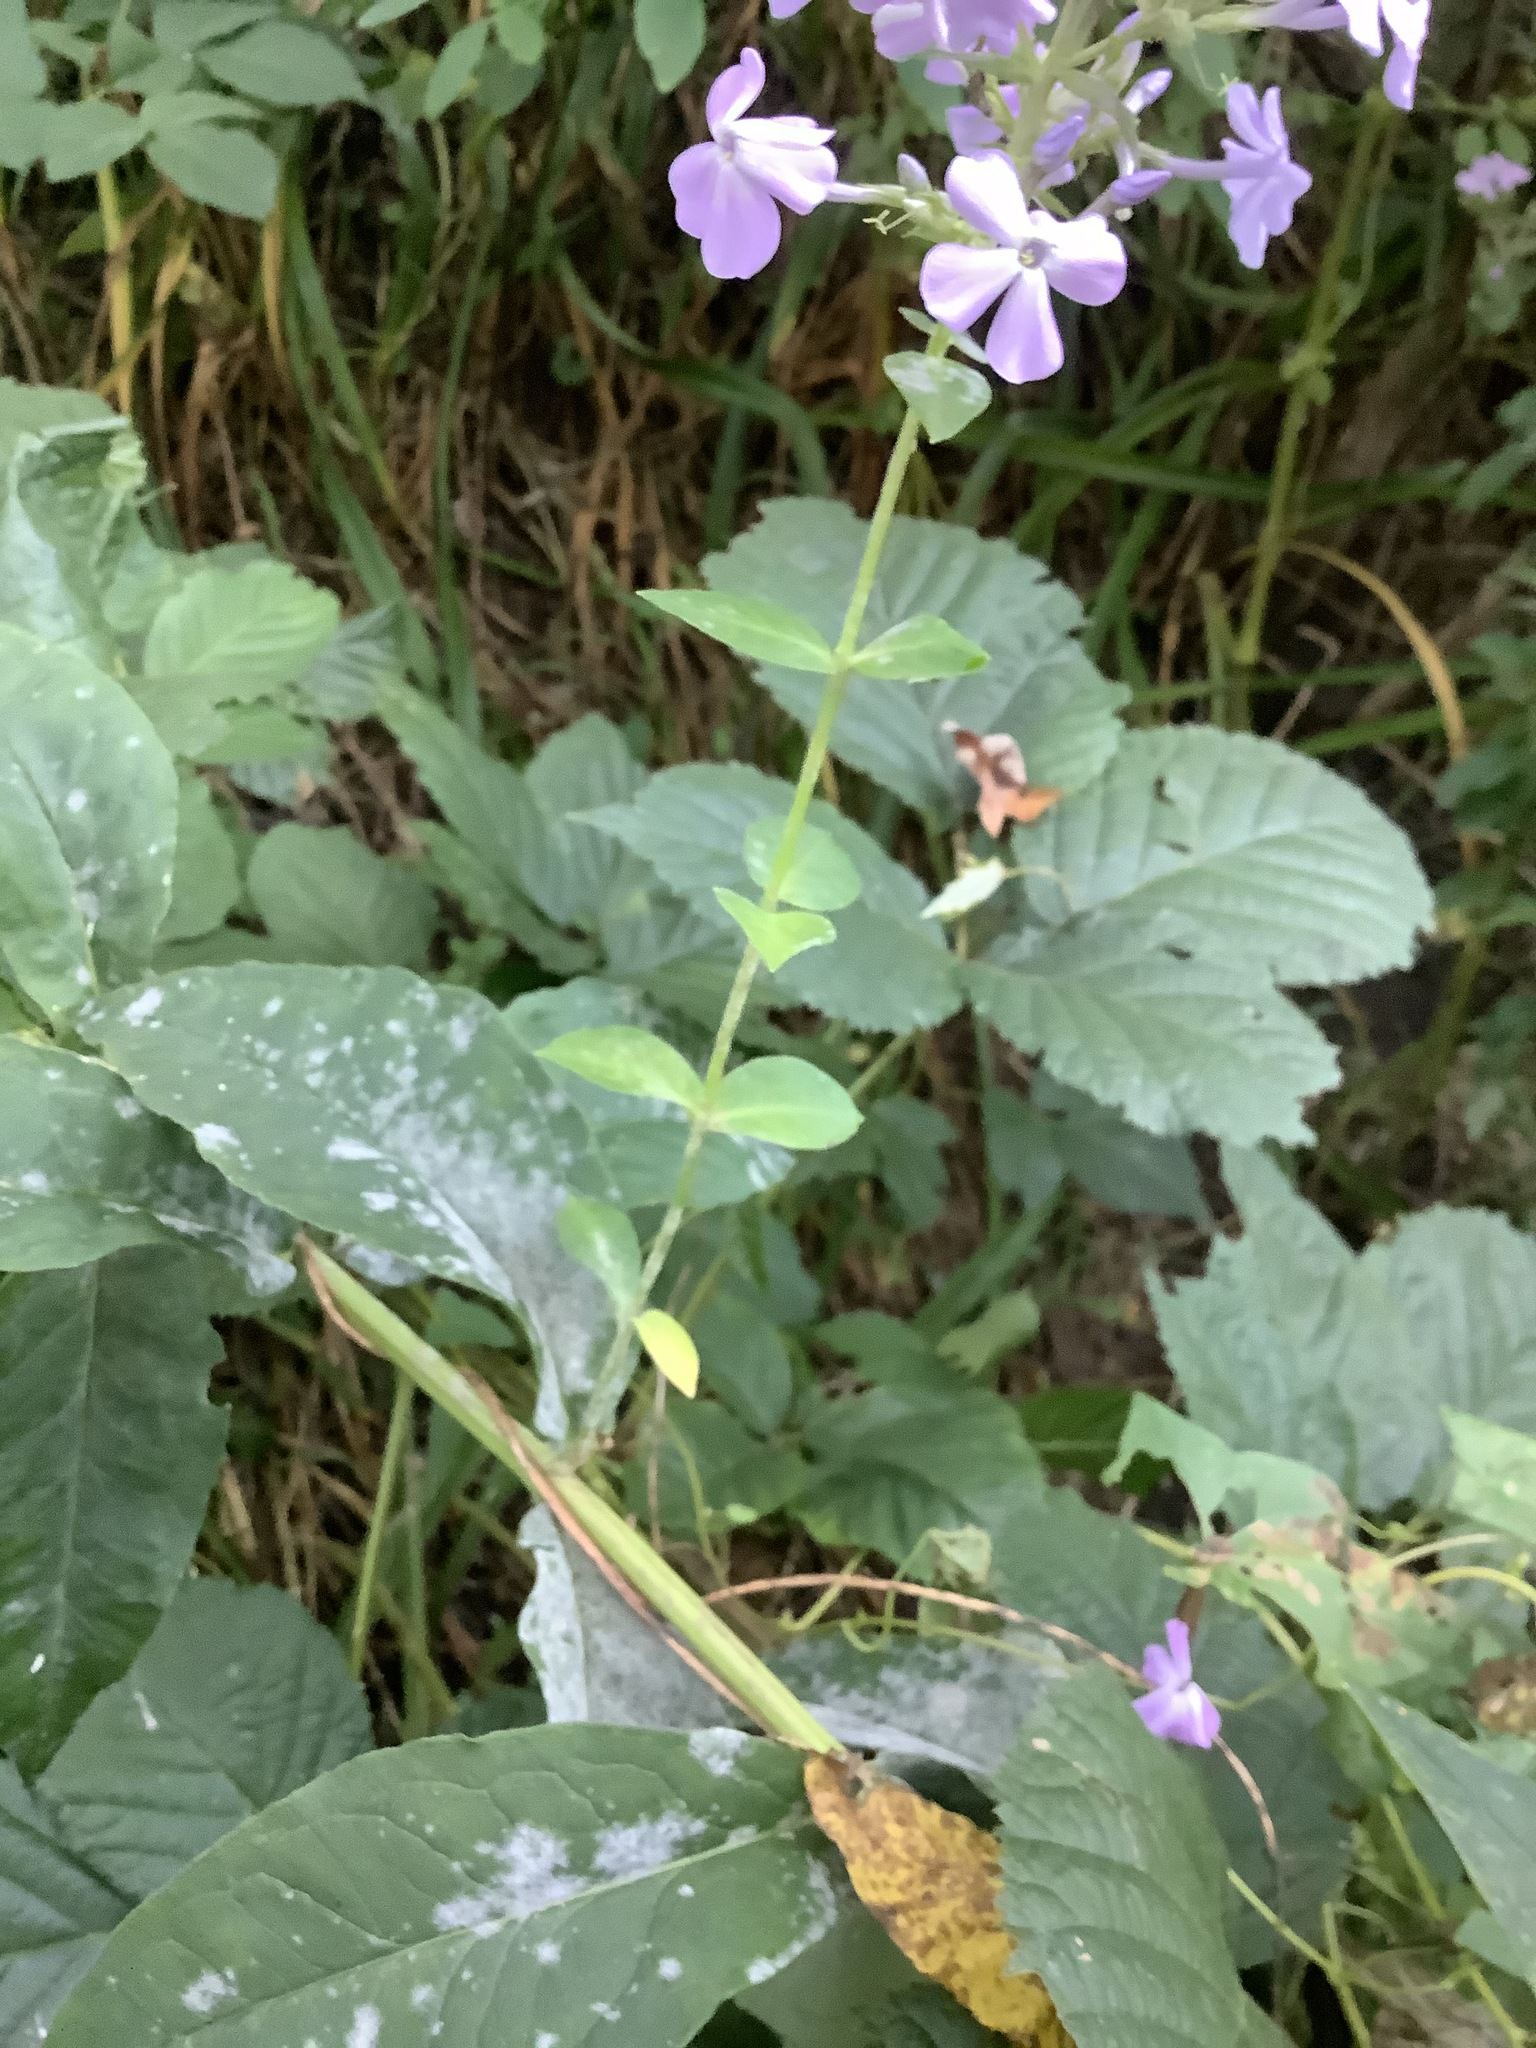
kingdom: Plantae
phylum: Tracheophyta
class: Magnoliopsida
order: Ericales
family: Polemoniaceae
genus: Phlox
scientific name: Phlox paniculata
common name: Fall phlox
